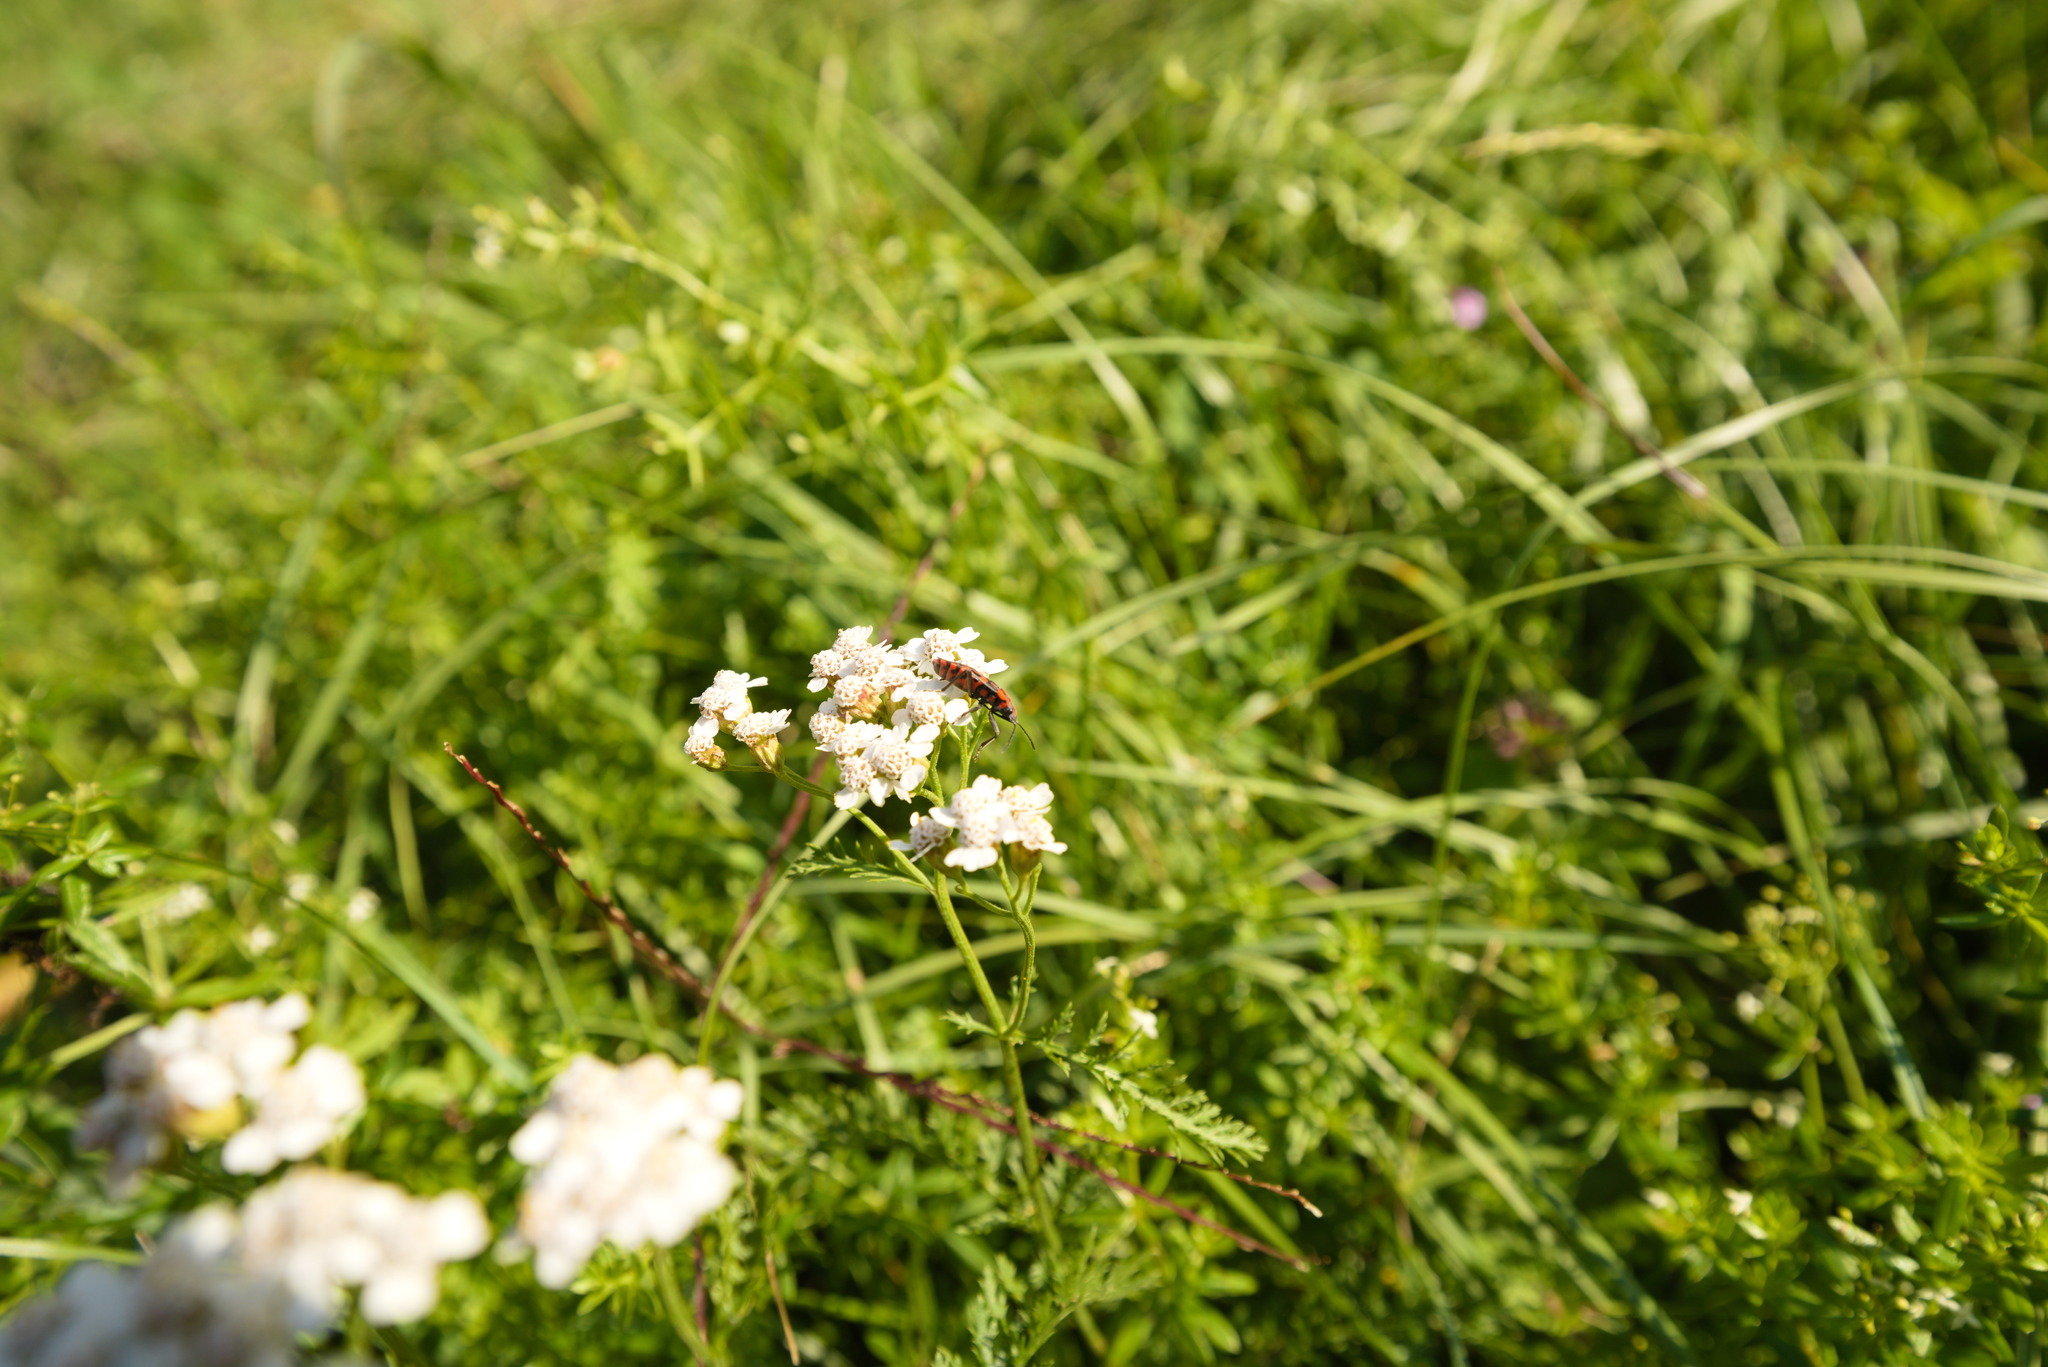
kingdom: Animalia
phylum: Arthropoda
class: Insecta
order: Hemiptera
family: Lygaeidae
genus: Spilostethus
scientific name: Spilostethus saxatilis
